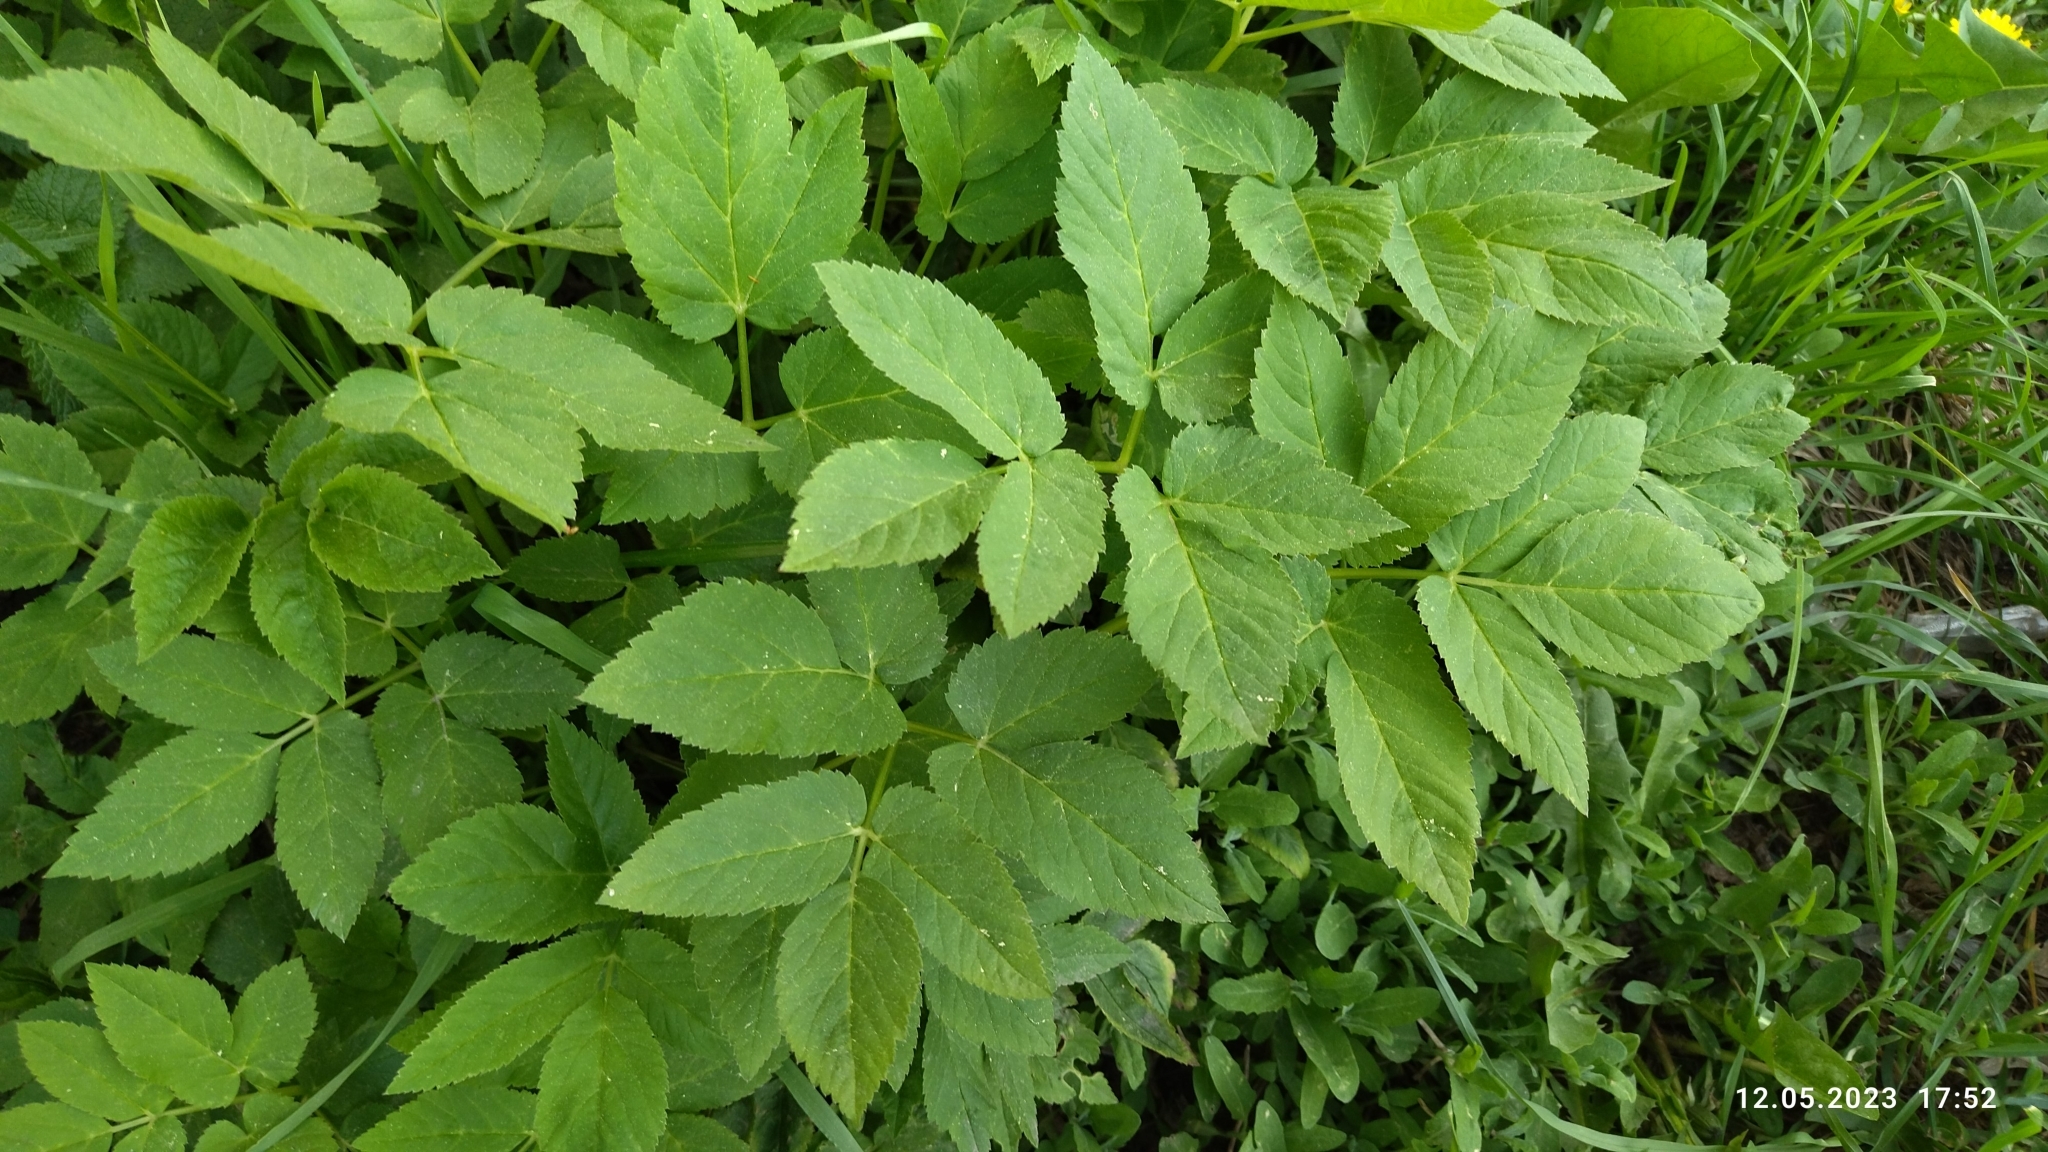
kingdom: Plantae
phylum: Tracheophyta
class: Magnoliopsida
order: Apiales
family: Apiaceae
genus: Aegopodium
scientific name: Aegopodium podagraria
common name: Ground-elder
